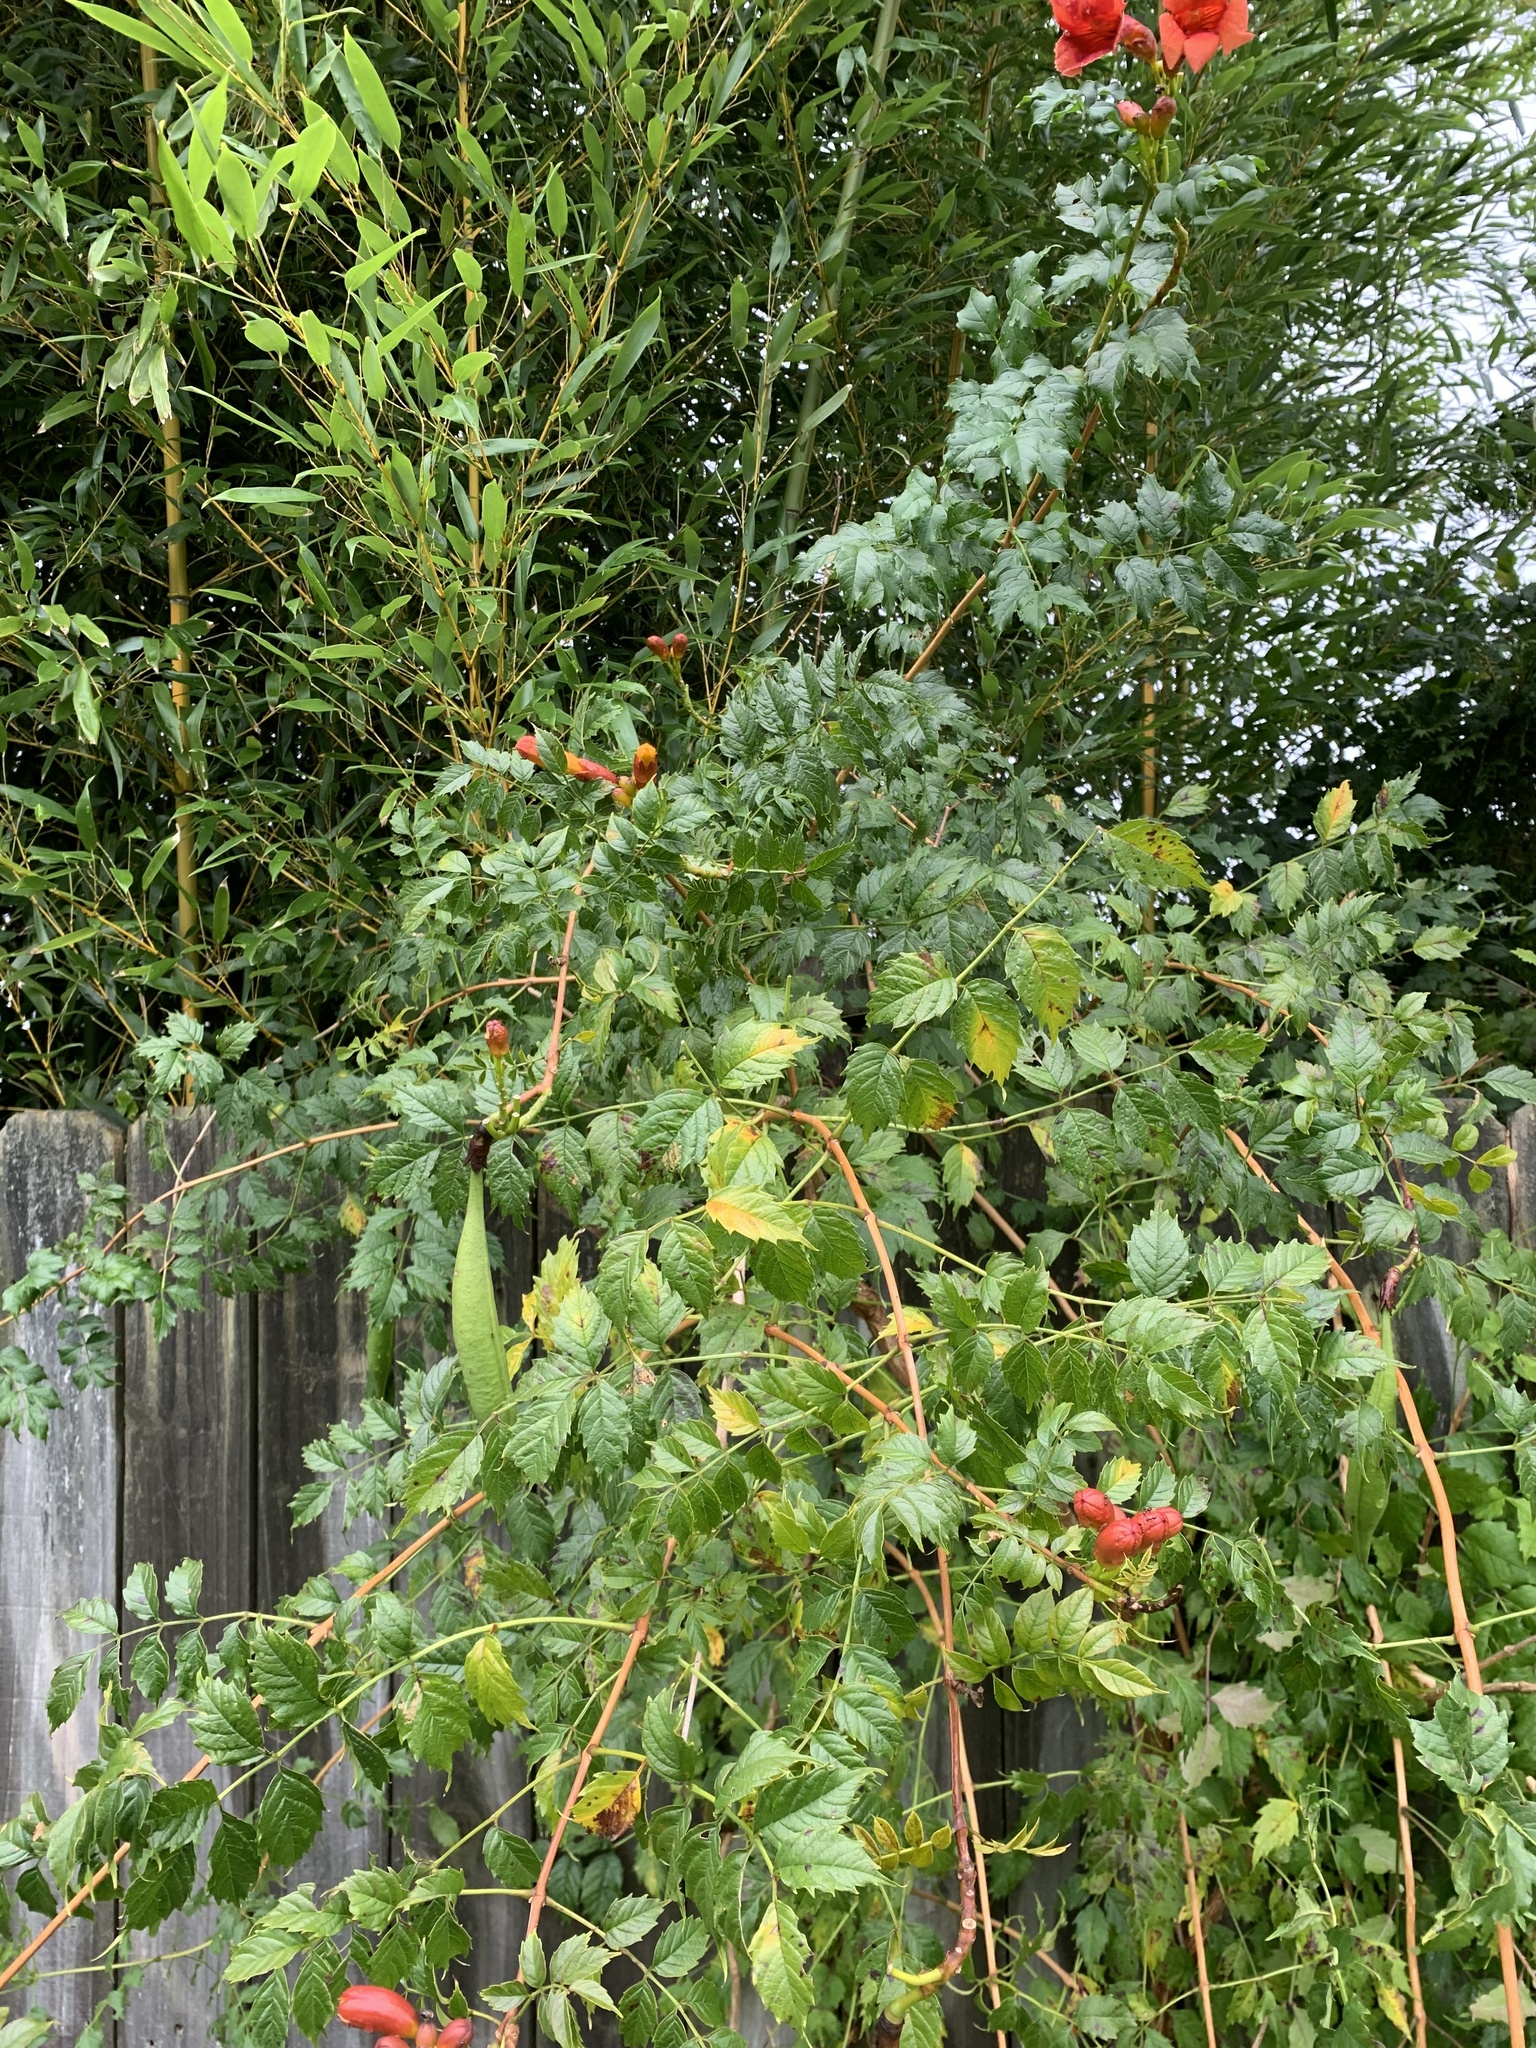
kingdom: Plantae
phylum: Tracheophyta
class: Magnoliopsida
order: Lamiales
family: Bignoniaceae
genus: Campsis
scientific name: Campsis radicans
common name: Trumpet-creeper
